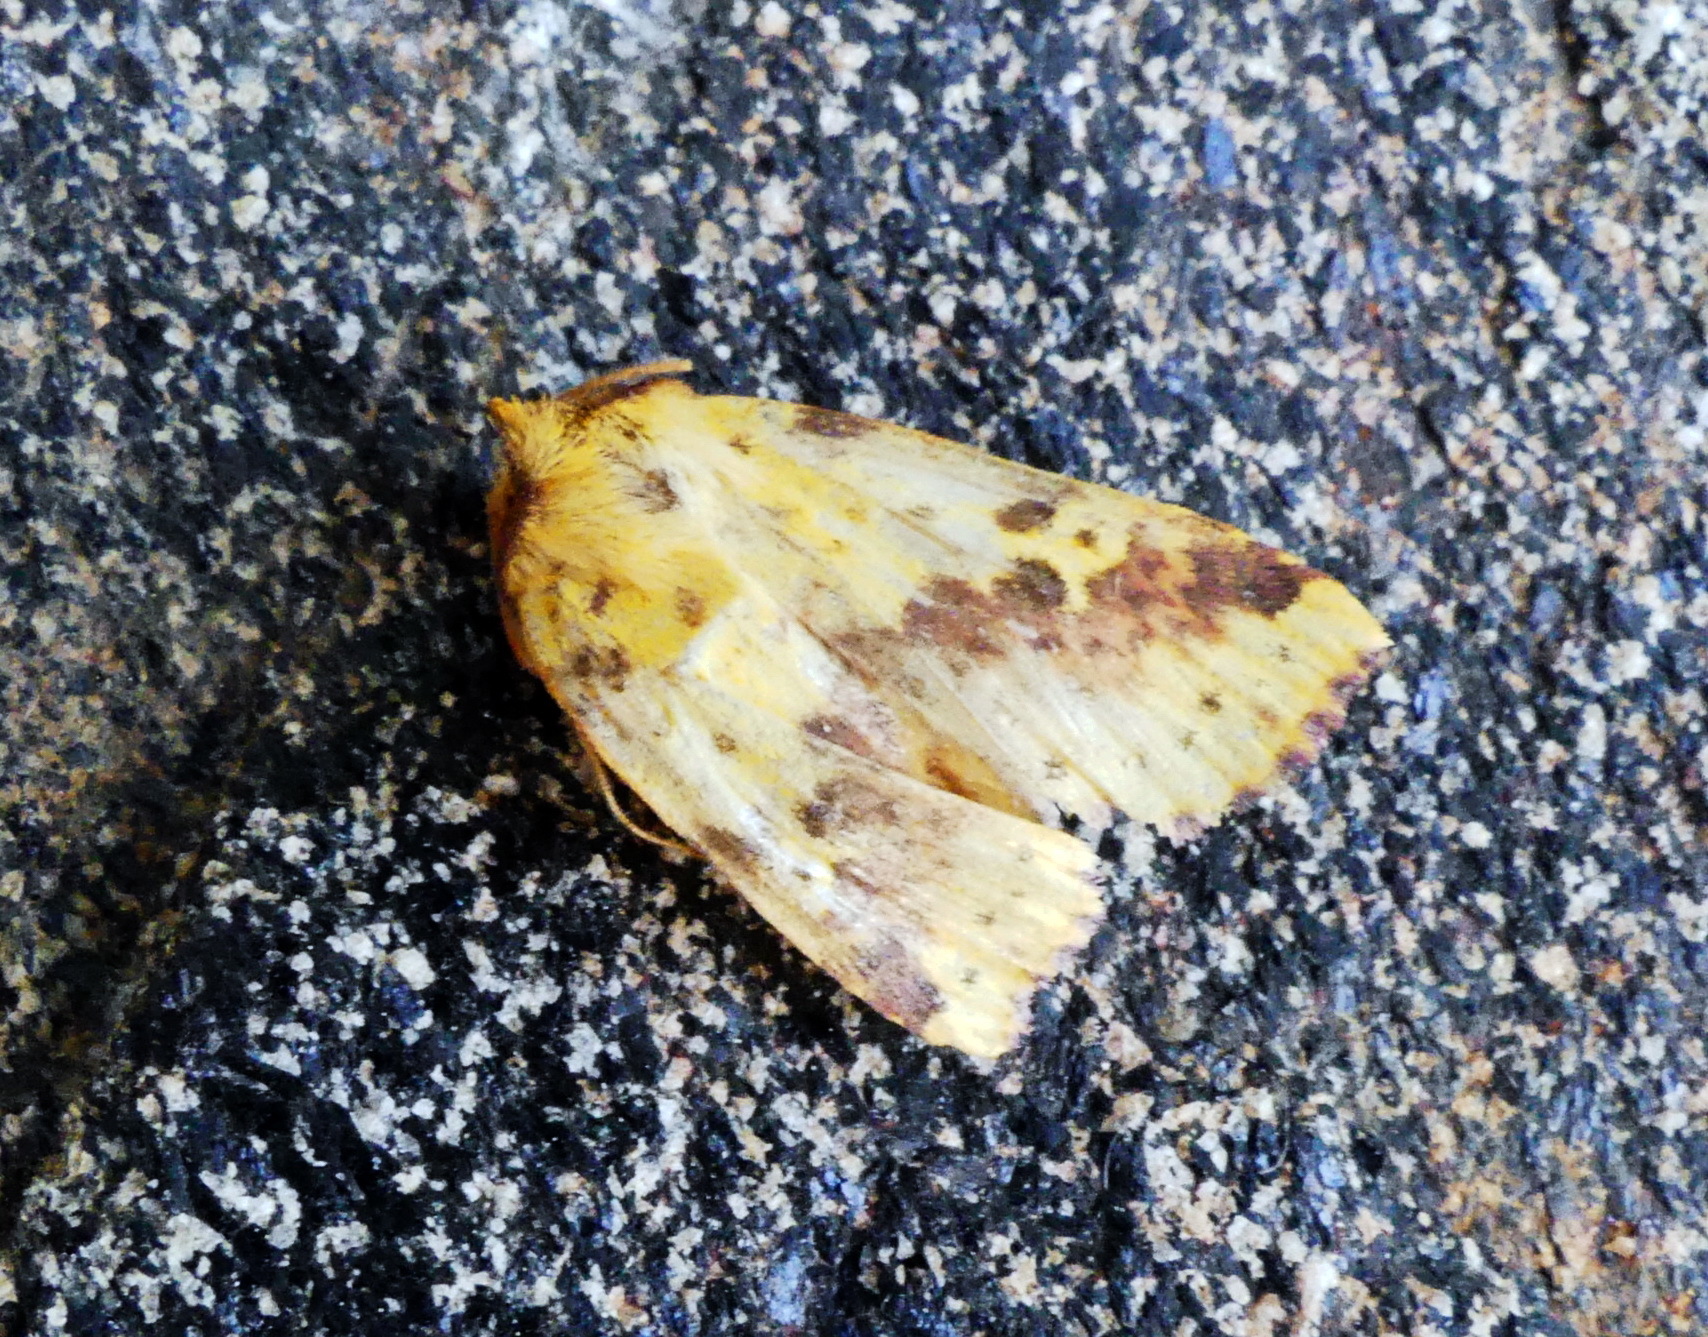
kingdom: Animalia
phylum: Arthropoda
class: Insecta
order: Lepidoptera
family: Noctuidae
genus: Xanthia
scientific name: Xanthia tatago
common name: Pink-banded sallow
